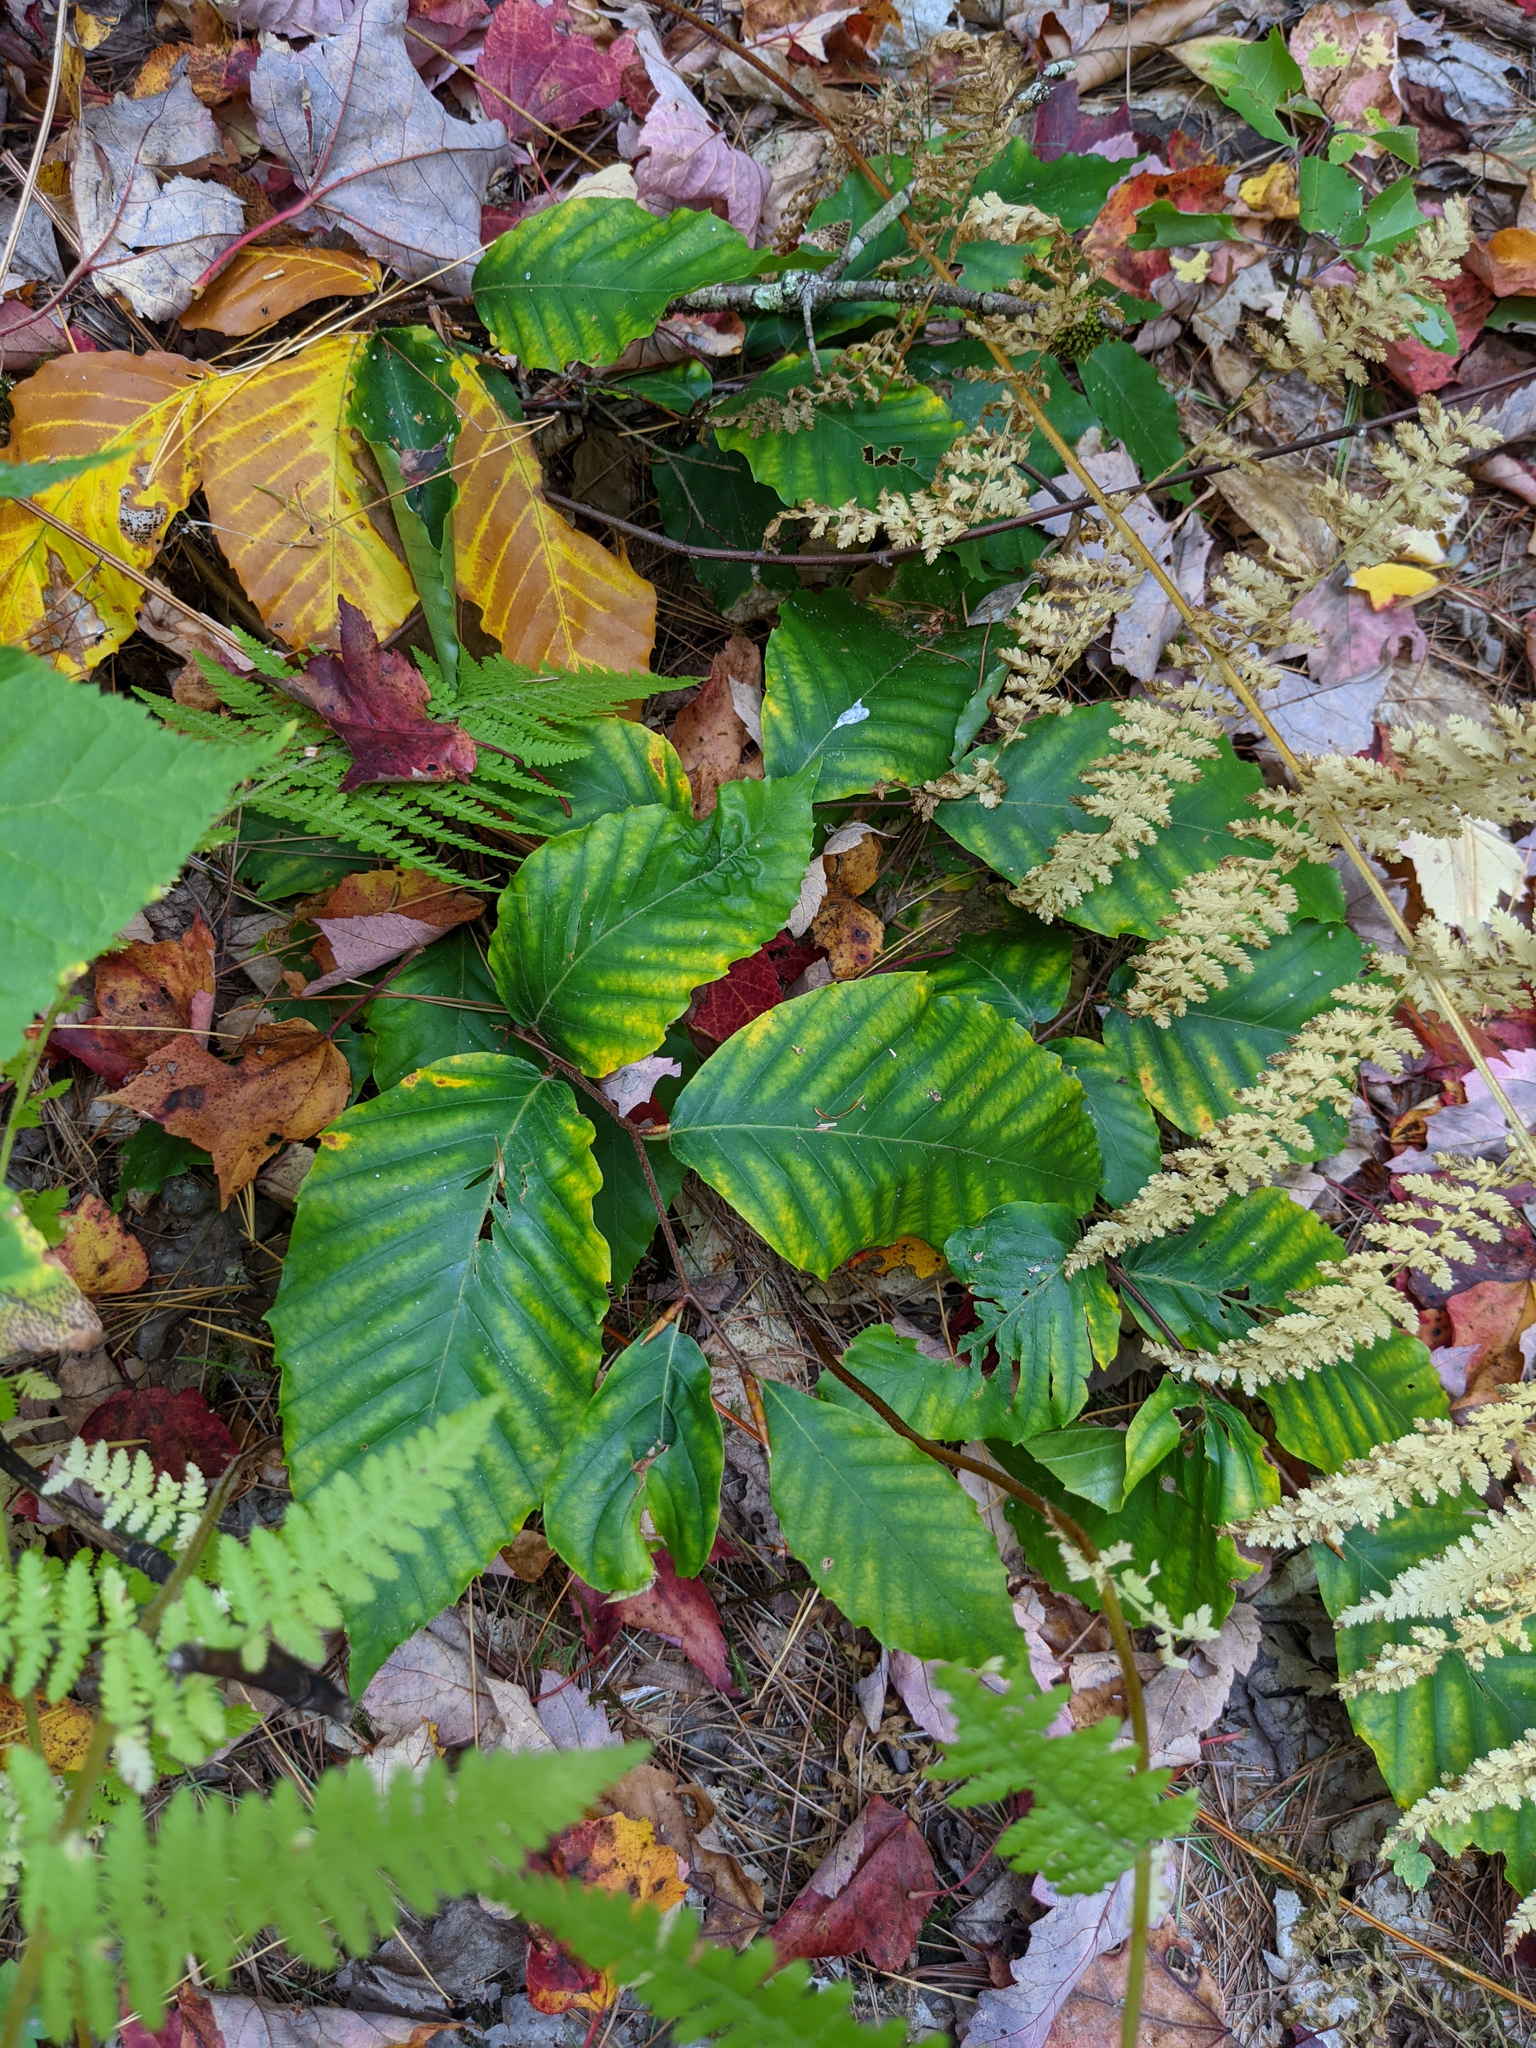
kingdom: Plantae
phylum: Tracheophyta
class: Magnoliopsida
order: Fagales
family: Fagaceae
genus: Fagus
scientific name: Fagus grandifolia
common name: American beech
